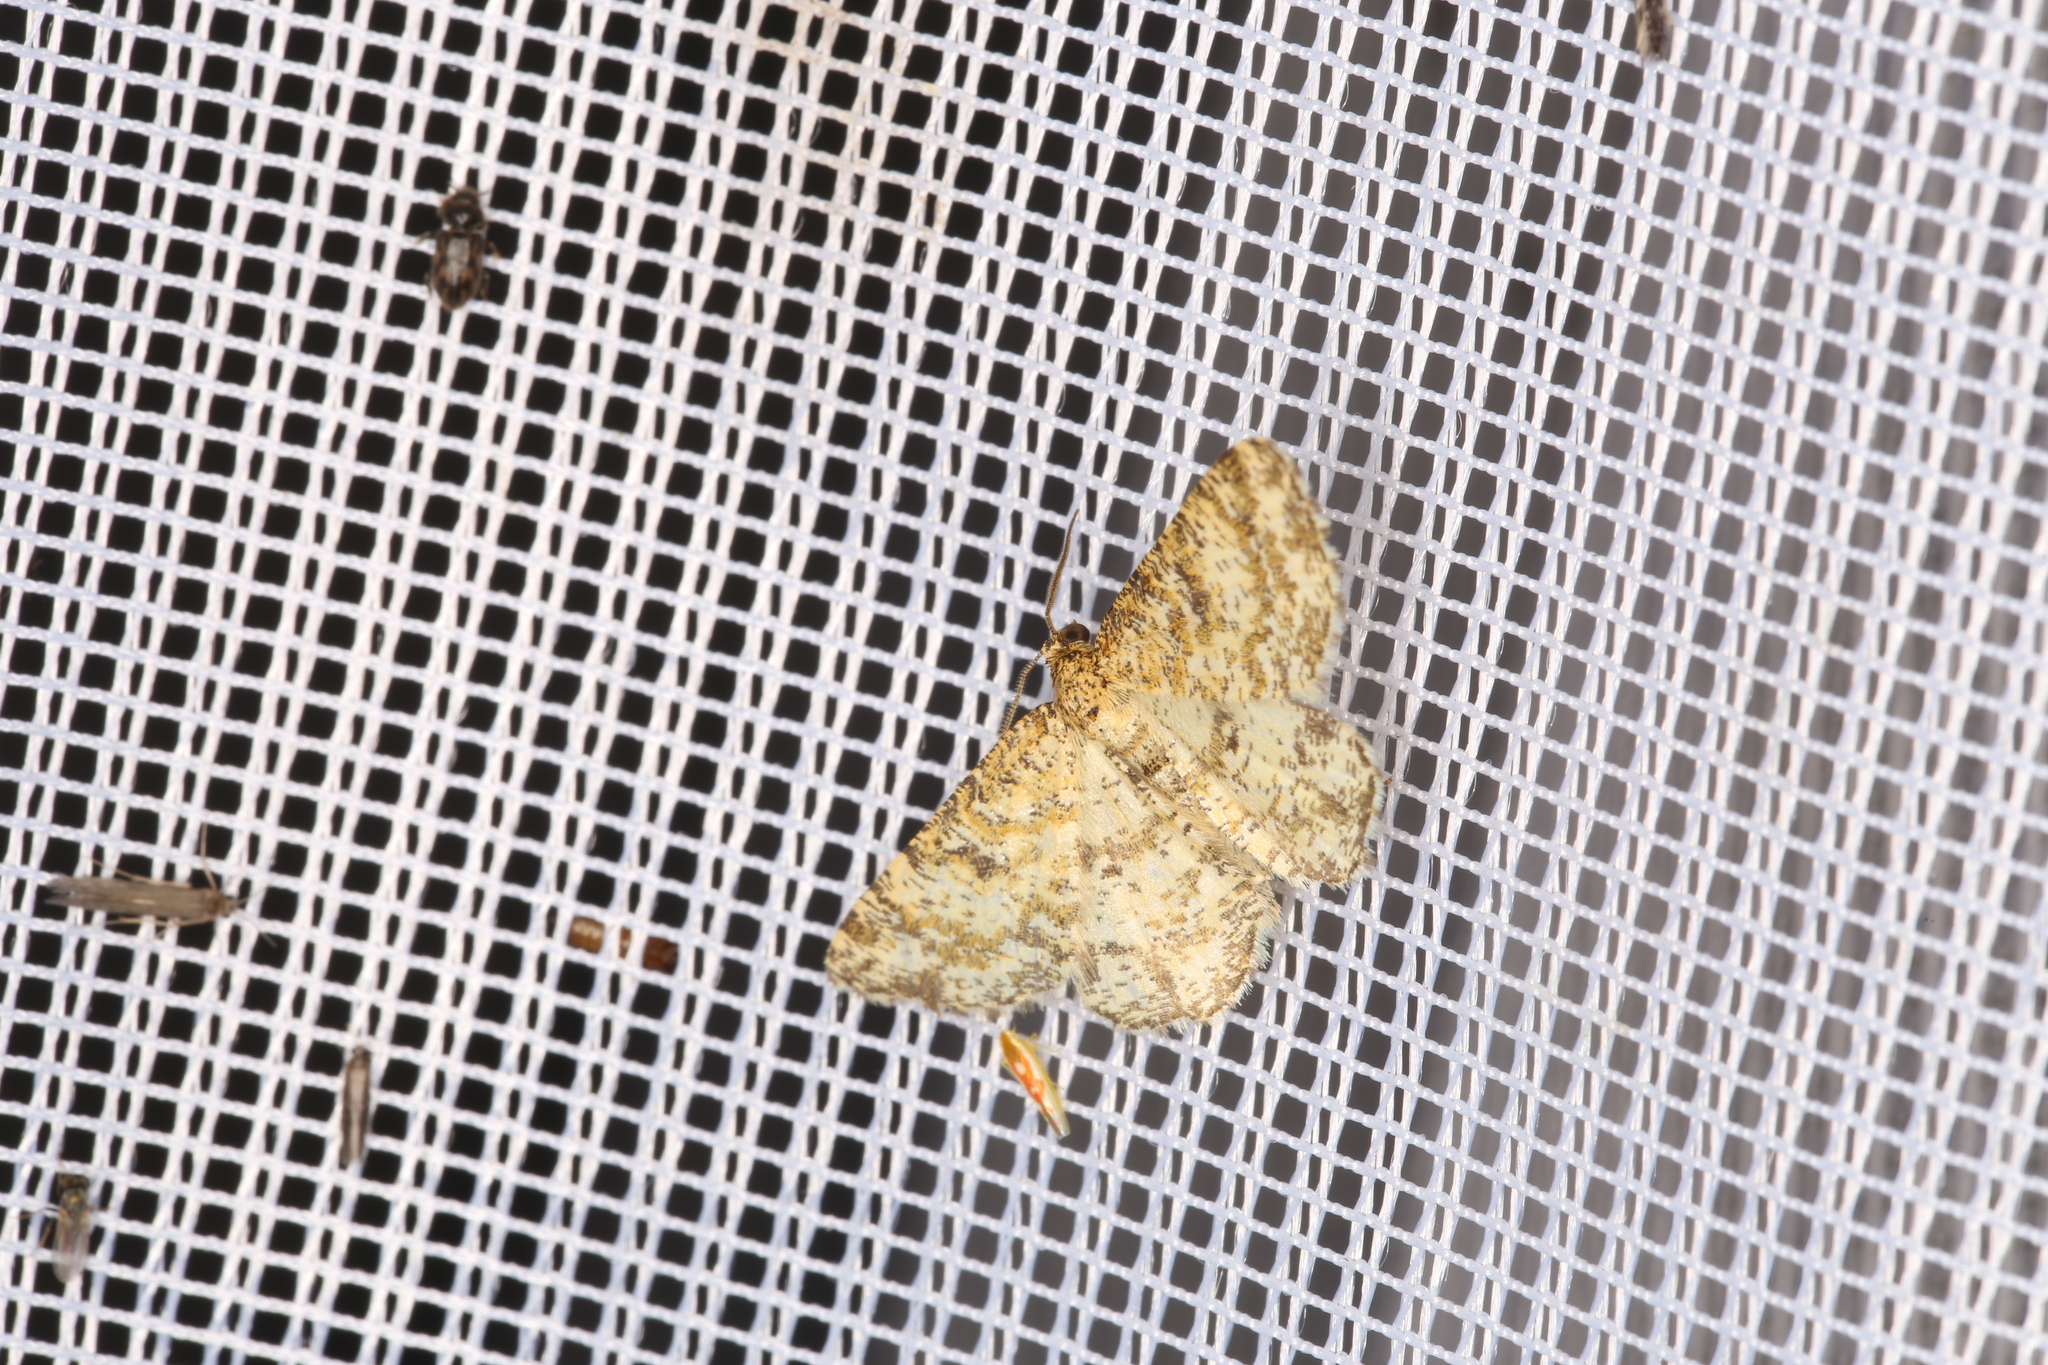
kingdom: Animalia
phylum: Arthropoda
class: Insecta
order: Lepidoptera
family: Geometridae
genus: Heliomata
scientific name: Heliomata glarearia
